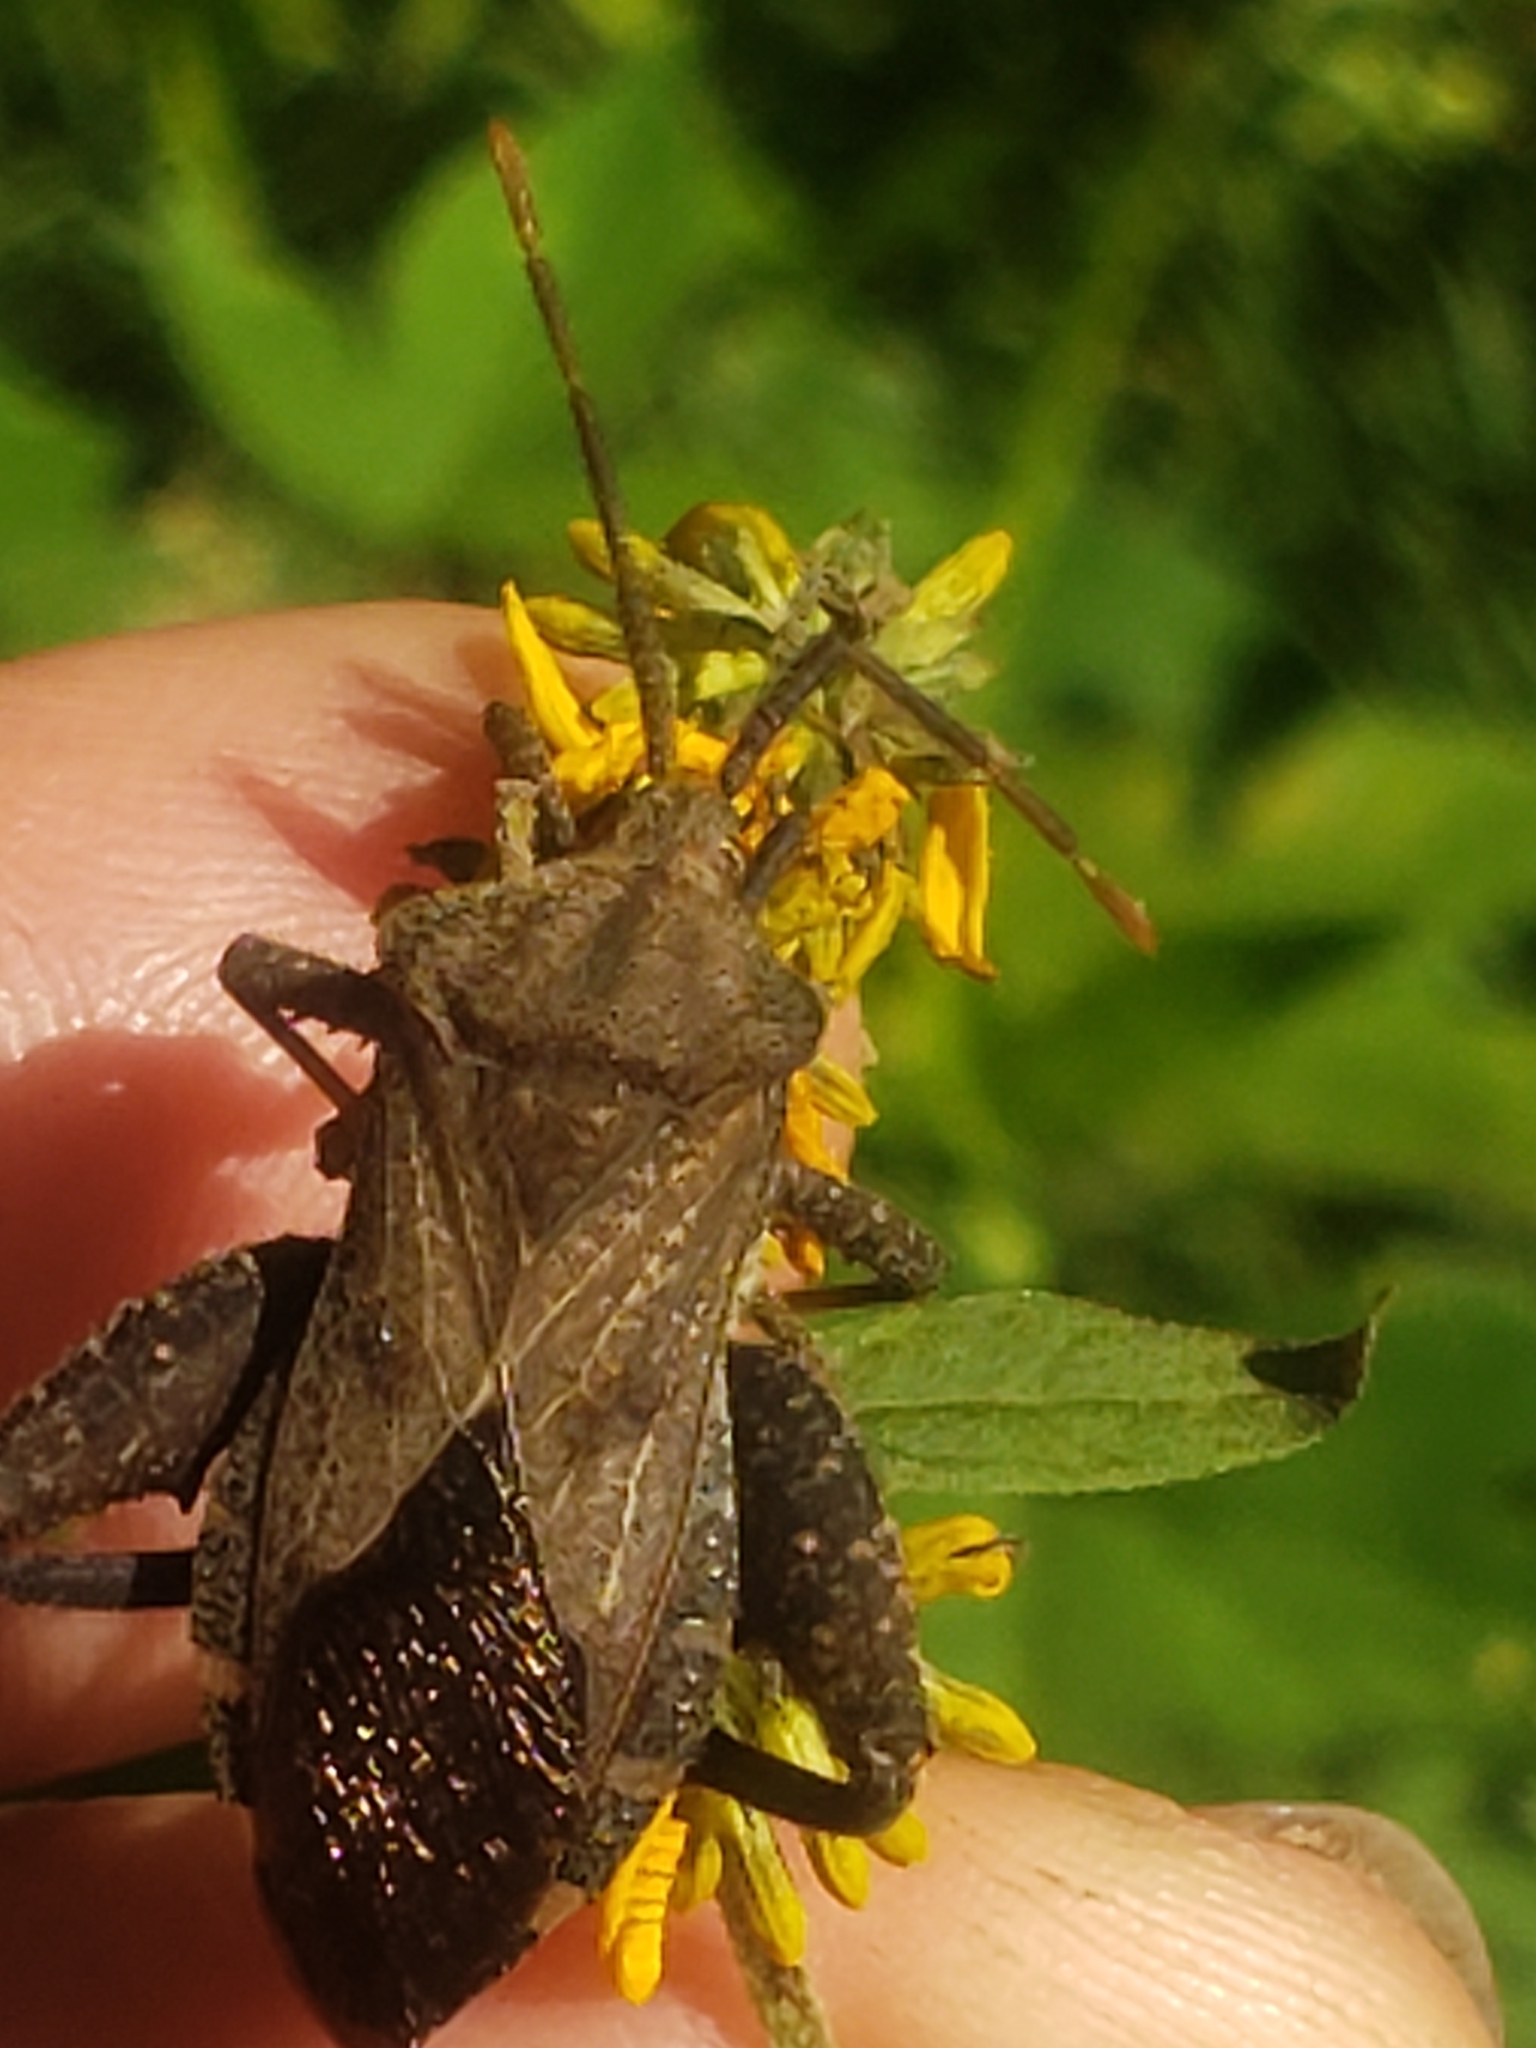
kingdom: Animalia
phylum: Arthropoda
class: Insecta
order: Hemiptera
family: Coreidae
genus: Piezogaster
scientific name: Piezogaster calcarator
